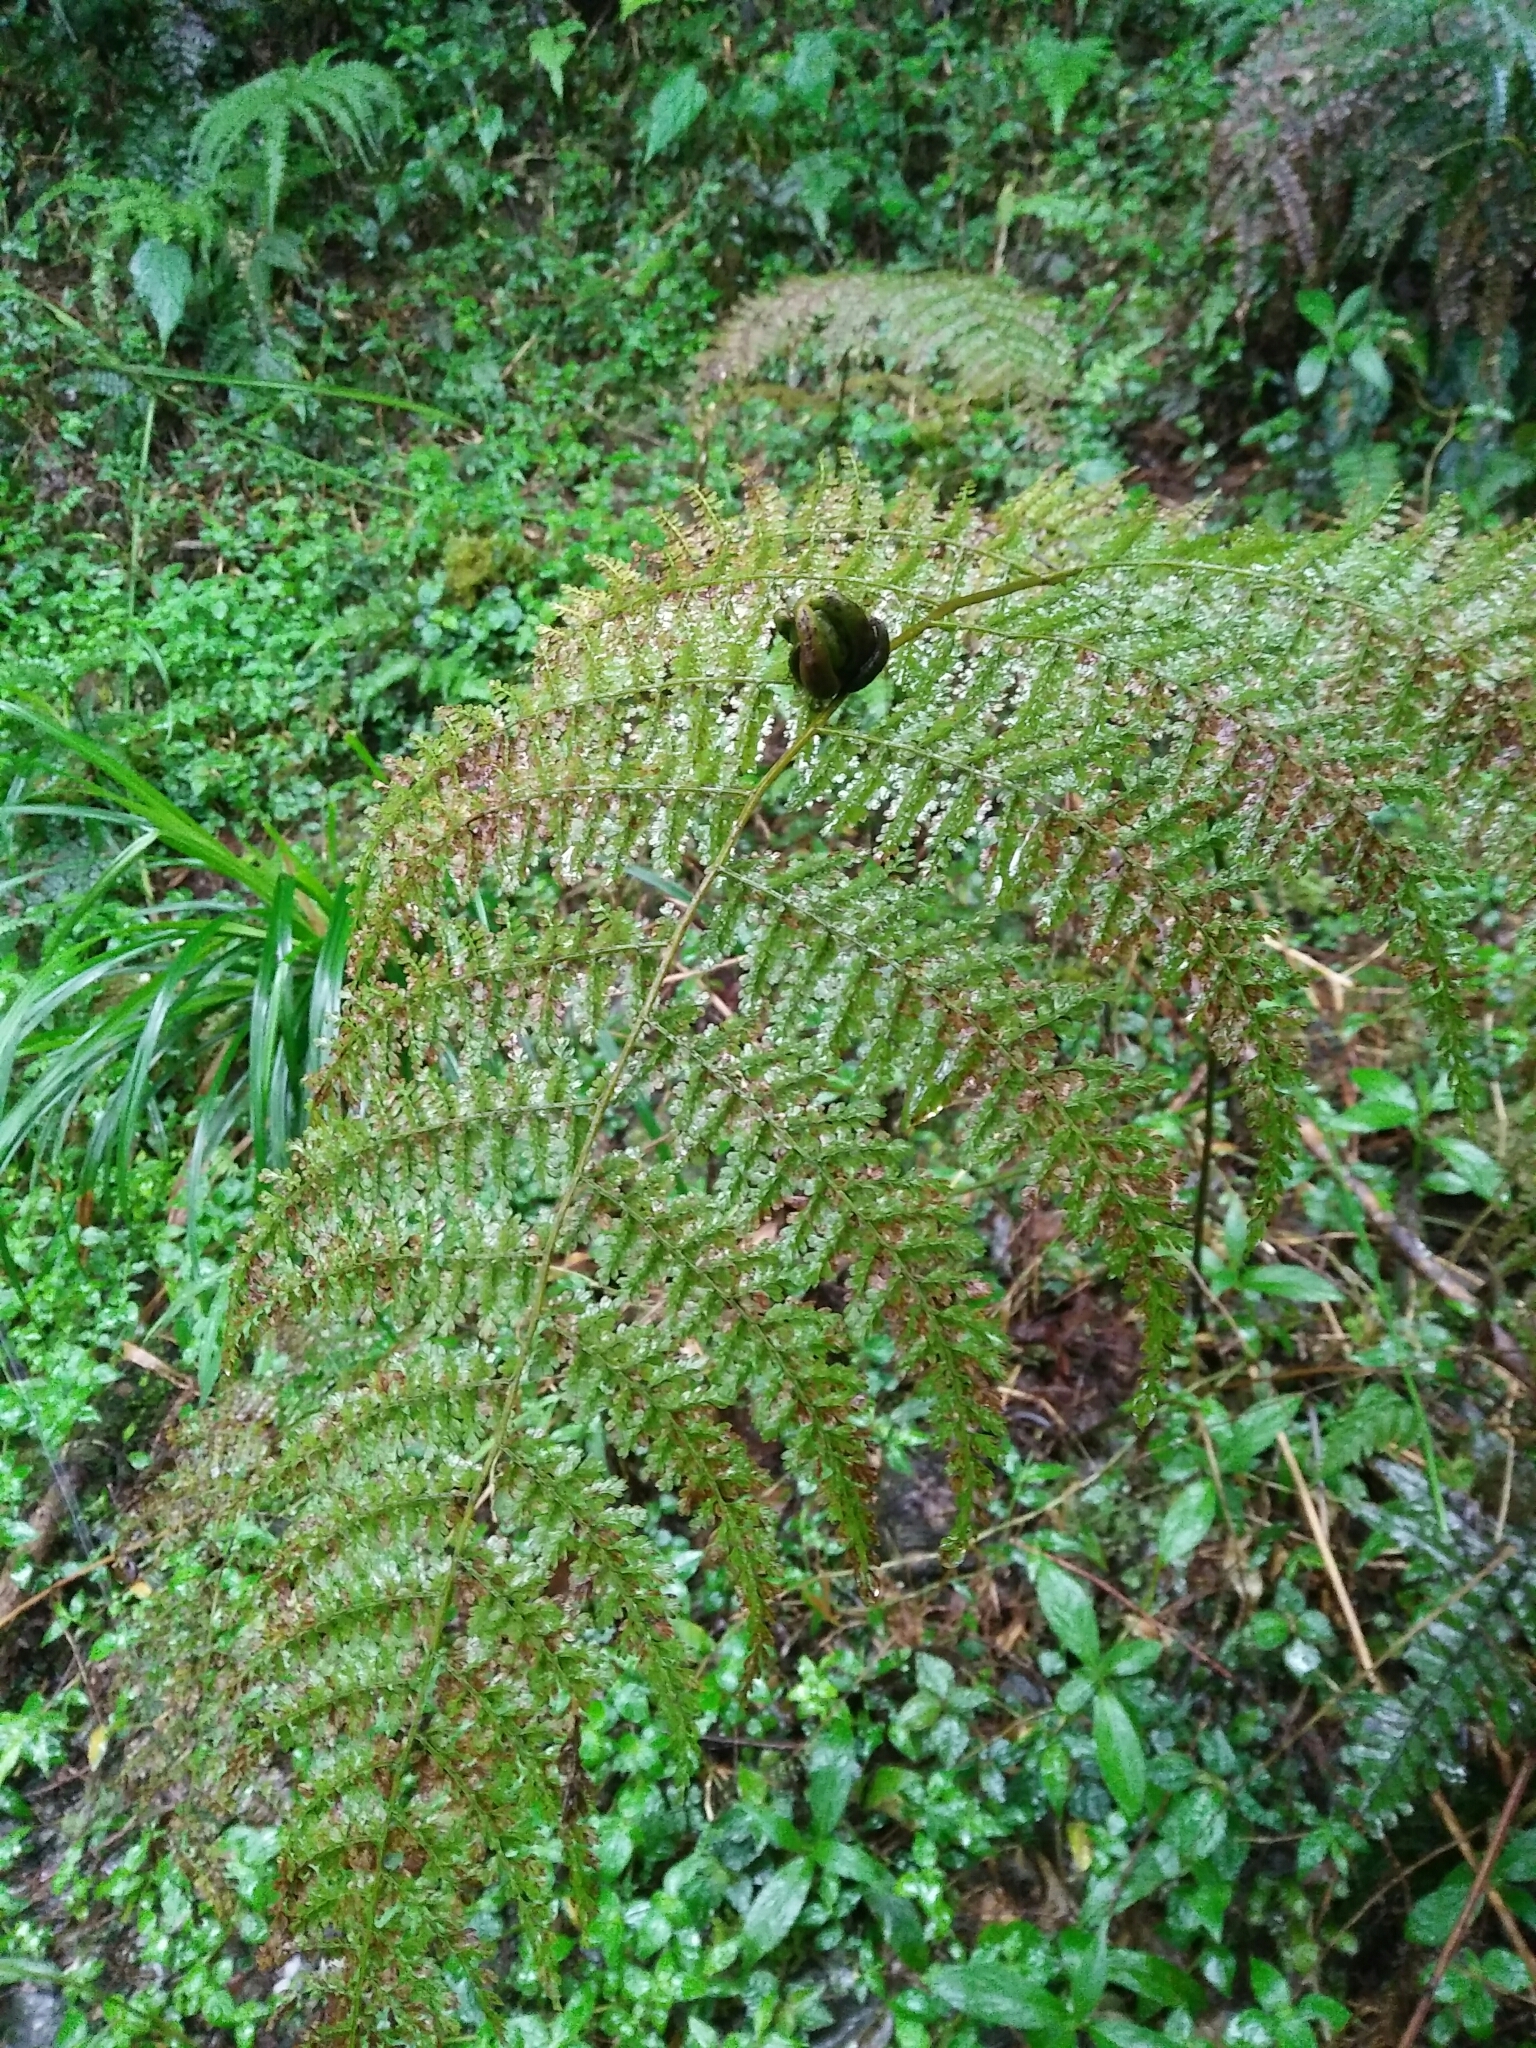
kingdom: Plantae
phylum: Tracheophyta
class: Polypodiopsida
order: Polypodiales
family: Dennstaedtiaceae
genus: Monachosorum
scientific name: Monachosorum henryi
